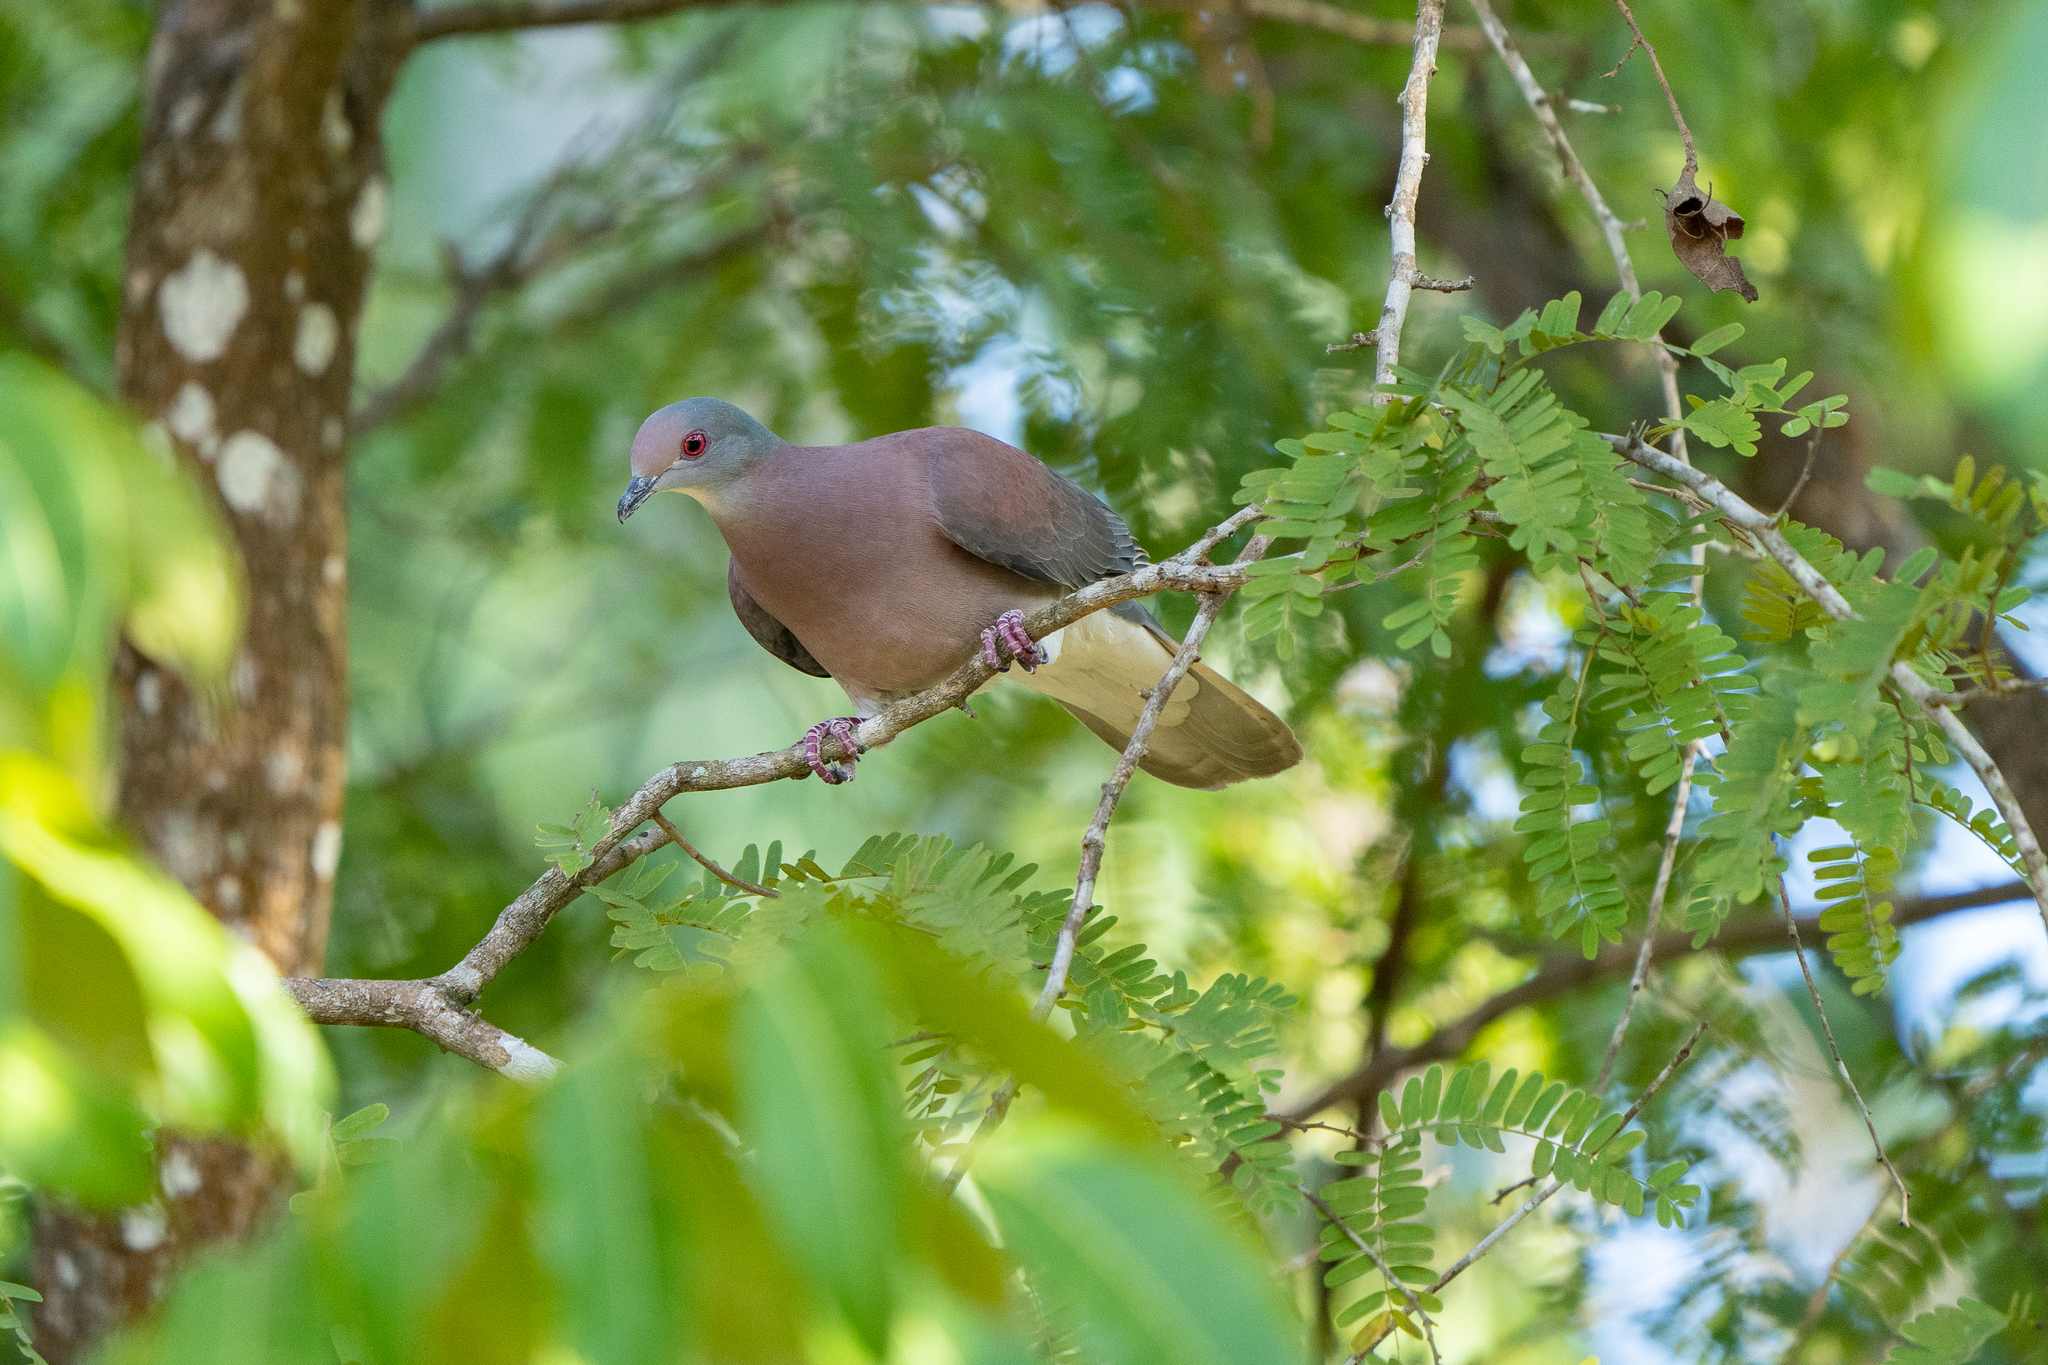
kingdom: Animalia
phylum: Chordata
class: Aves
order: Columbiformes
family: Columbidae
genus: Patagioenas
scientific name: Patagioenas cayennensis
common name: Pale-vented pigeon
